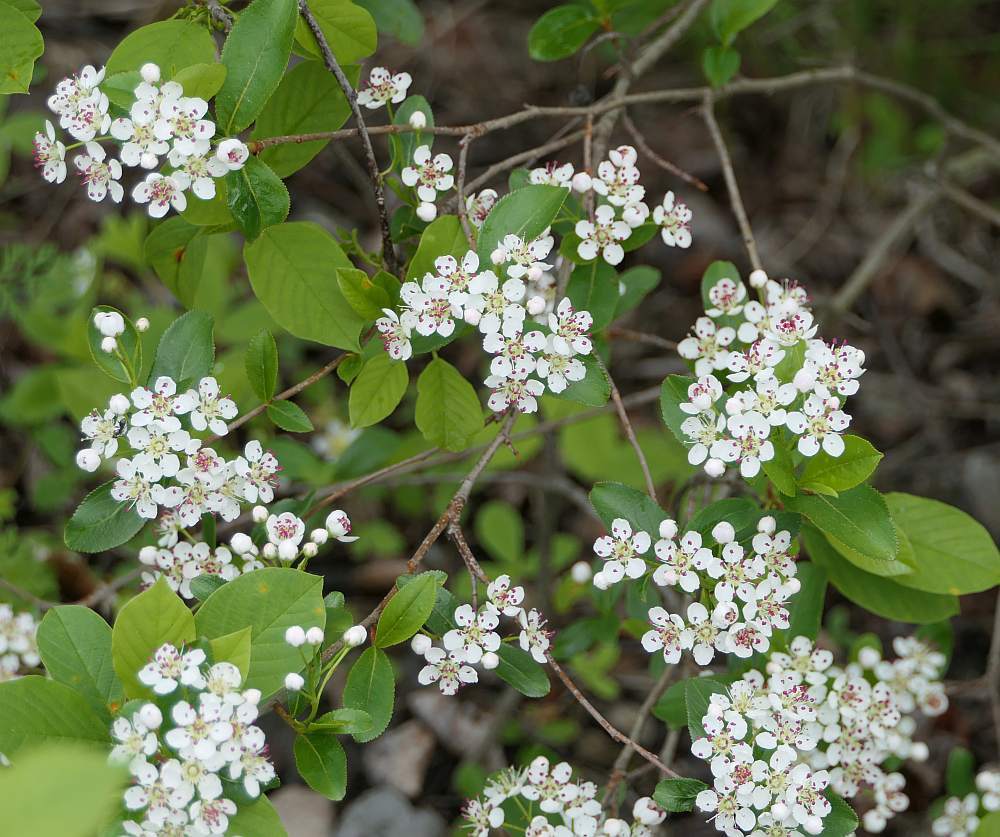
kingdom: Plantae
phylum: Tracheophyta
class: Magnoliopsida
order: Rosales
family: Rosaceae
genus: Aronia
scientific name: Aronia melanocarpa
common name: Black chokeberry
